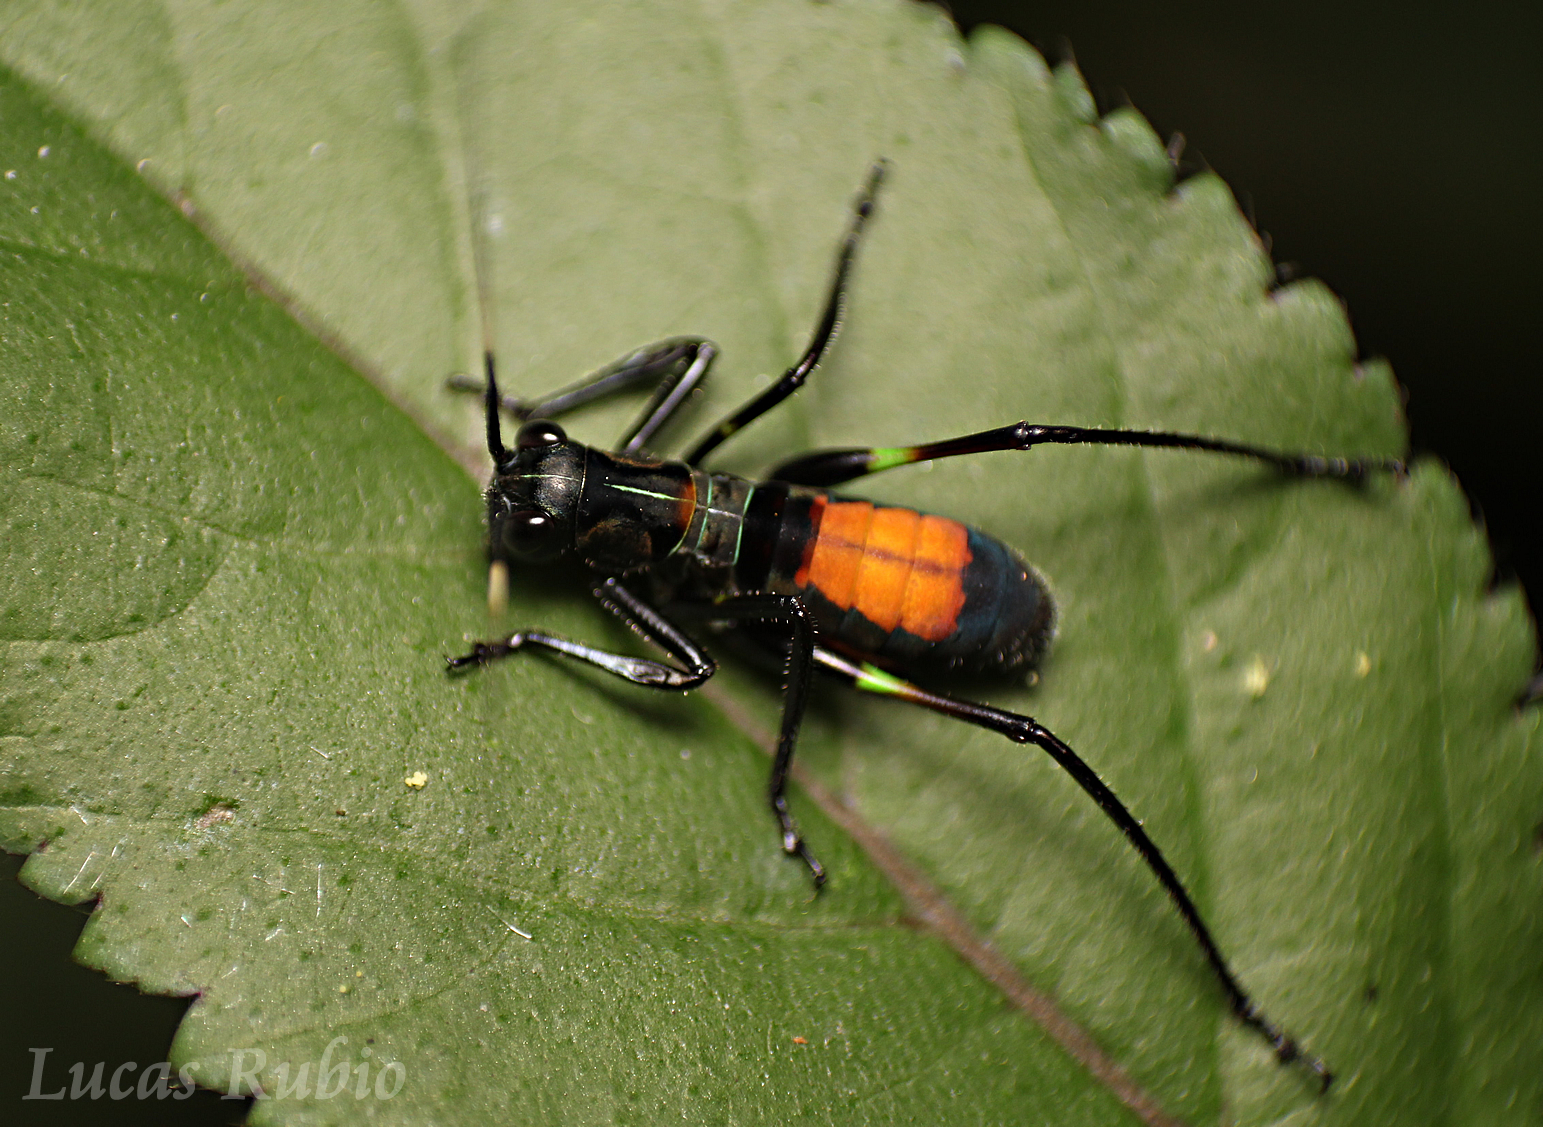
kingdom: Animalia
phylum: Arthropoda
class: Insecta
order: Orthoptera
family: Tettigoniidae
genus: Scaphura
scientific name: Scaphura nigra
